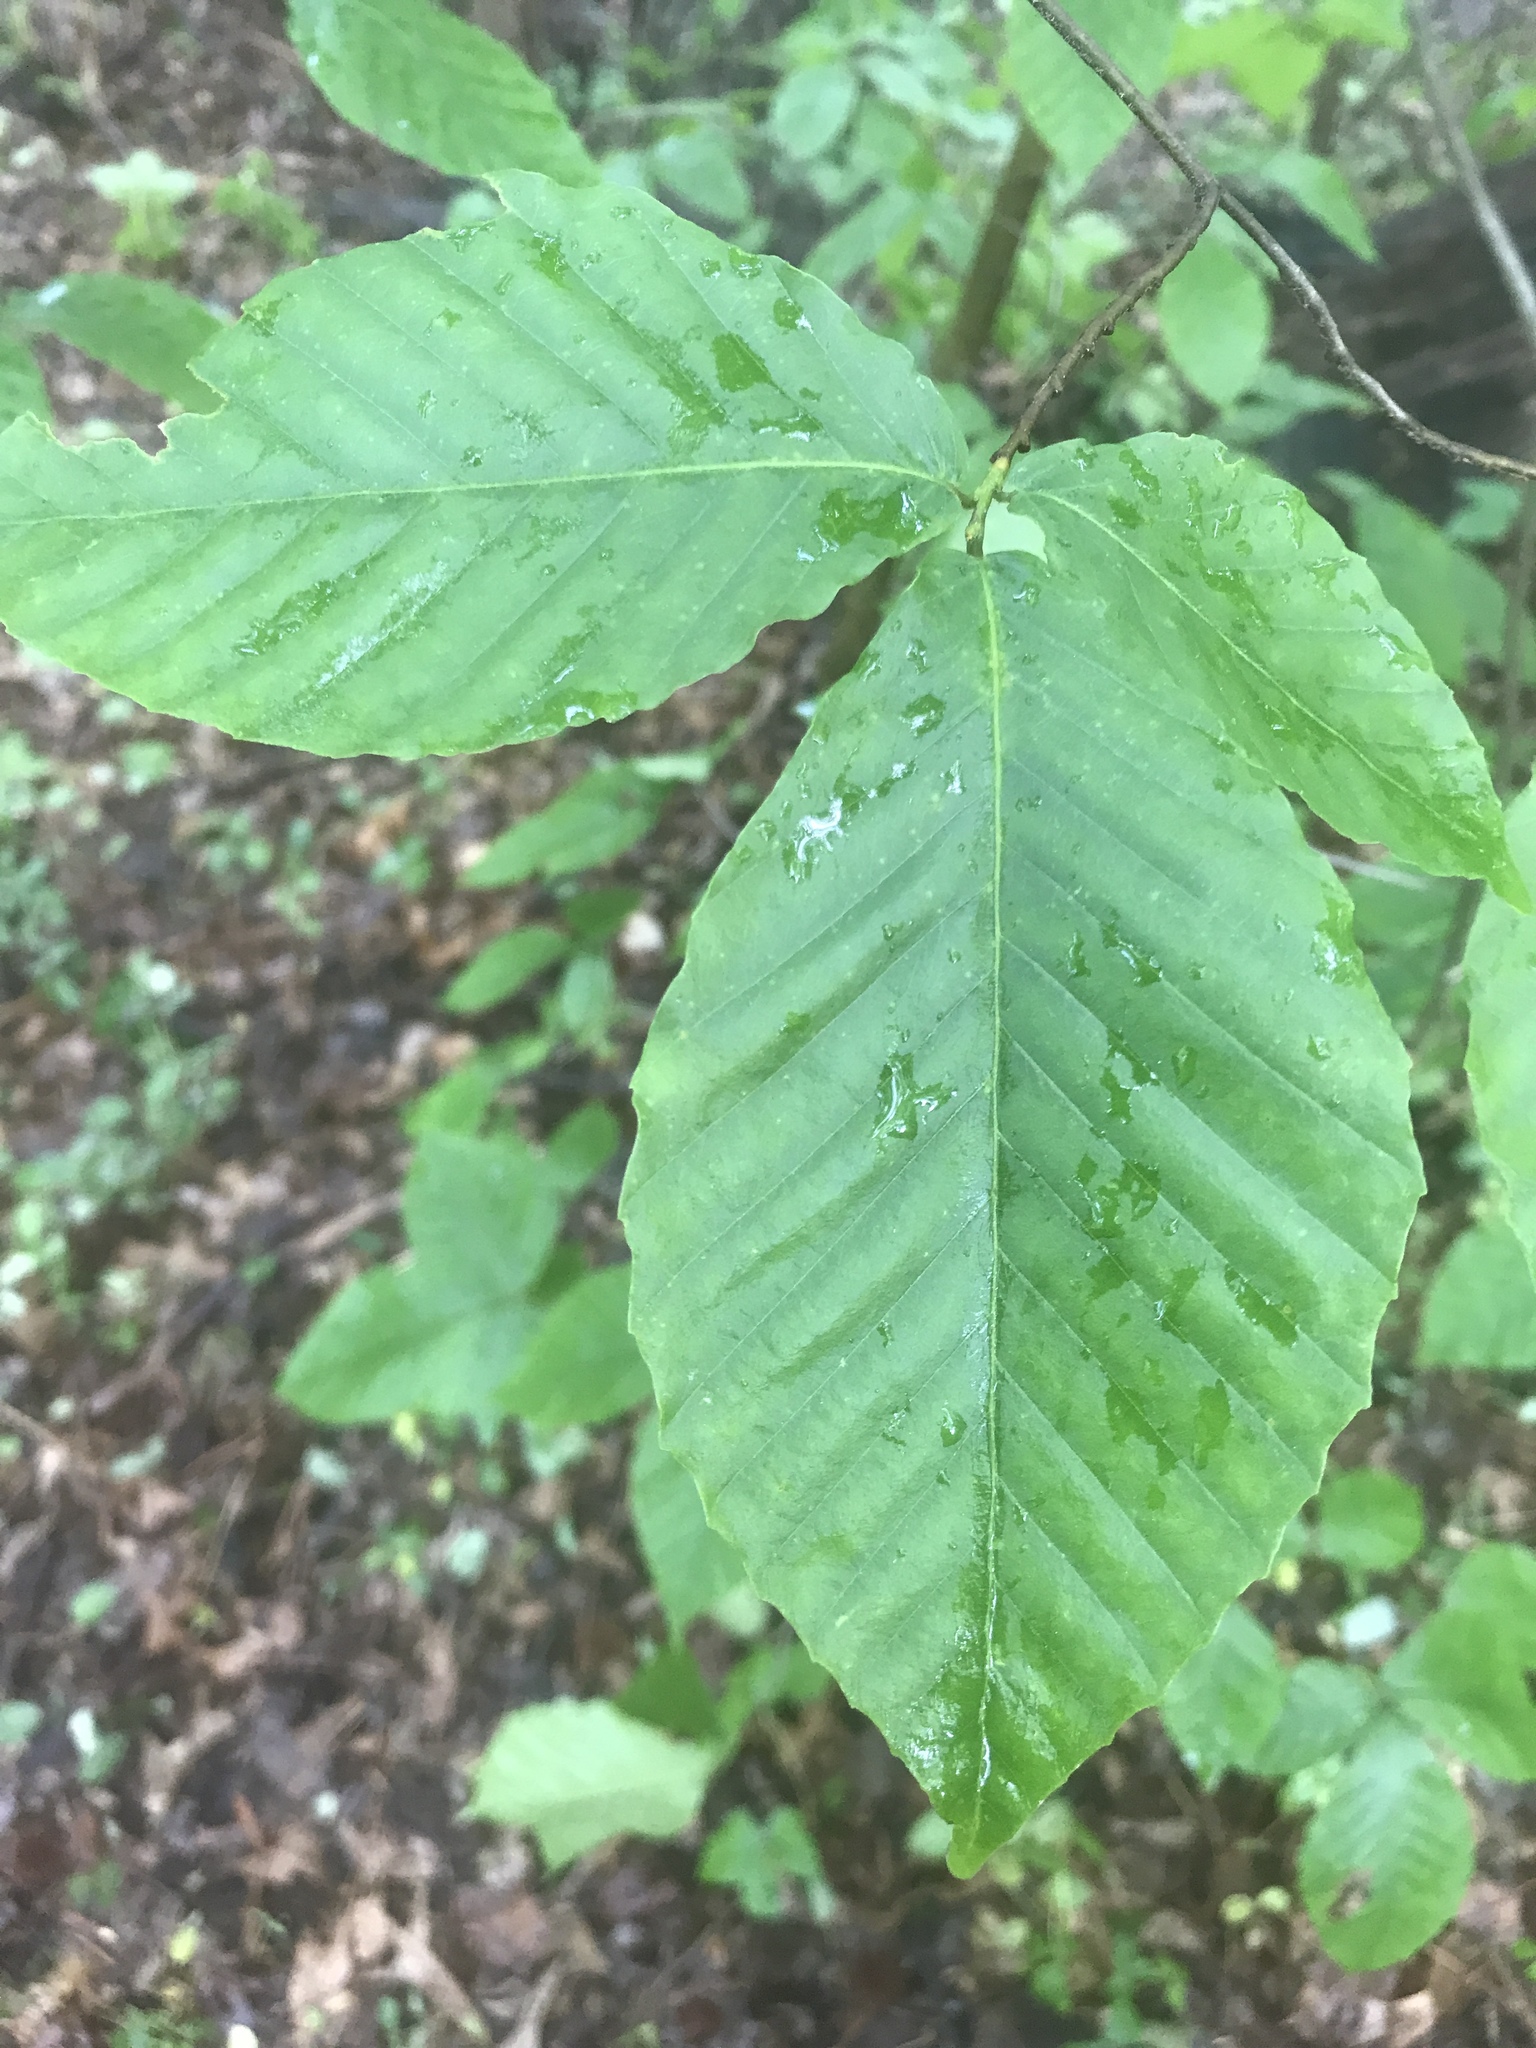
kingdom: Plantae
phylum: Tracheophyta
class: Magnoliopsida
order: Fagales
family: Fagaceae
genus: Fagus
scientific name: Fagus grandifolia
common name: American beech
